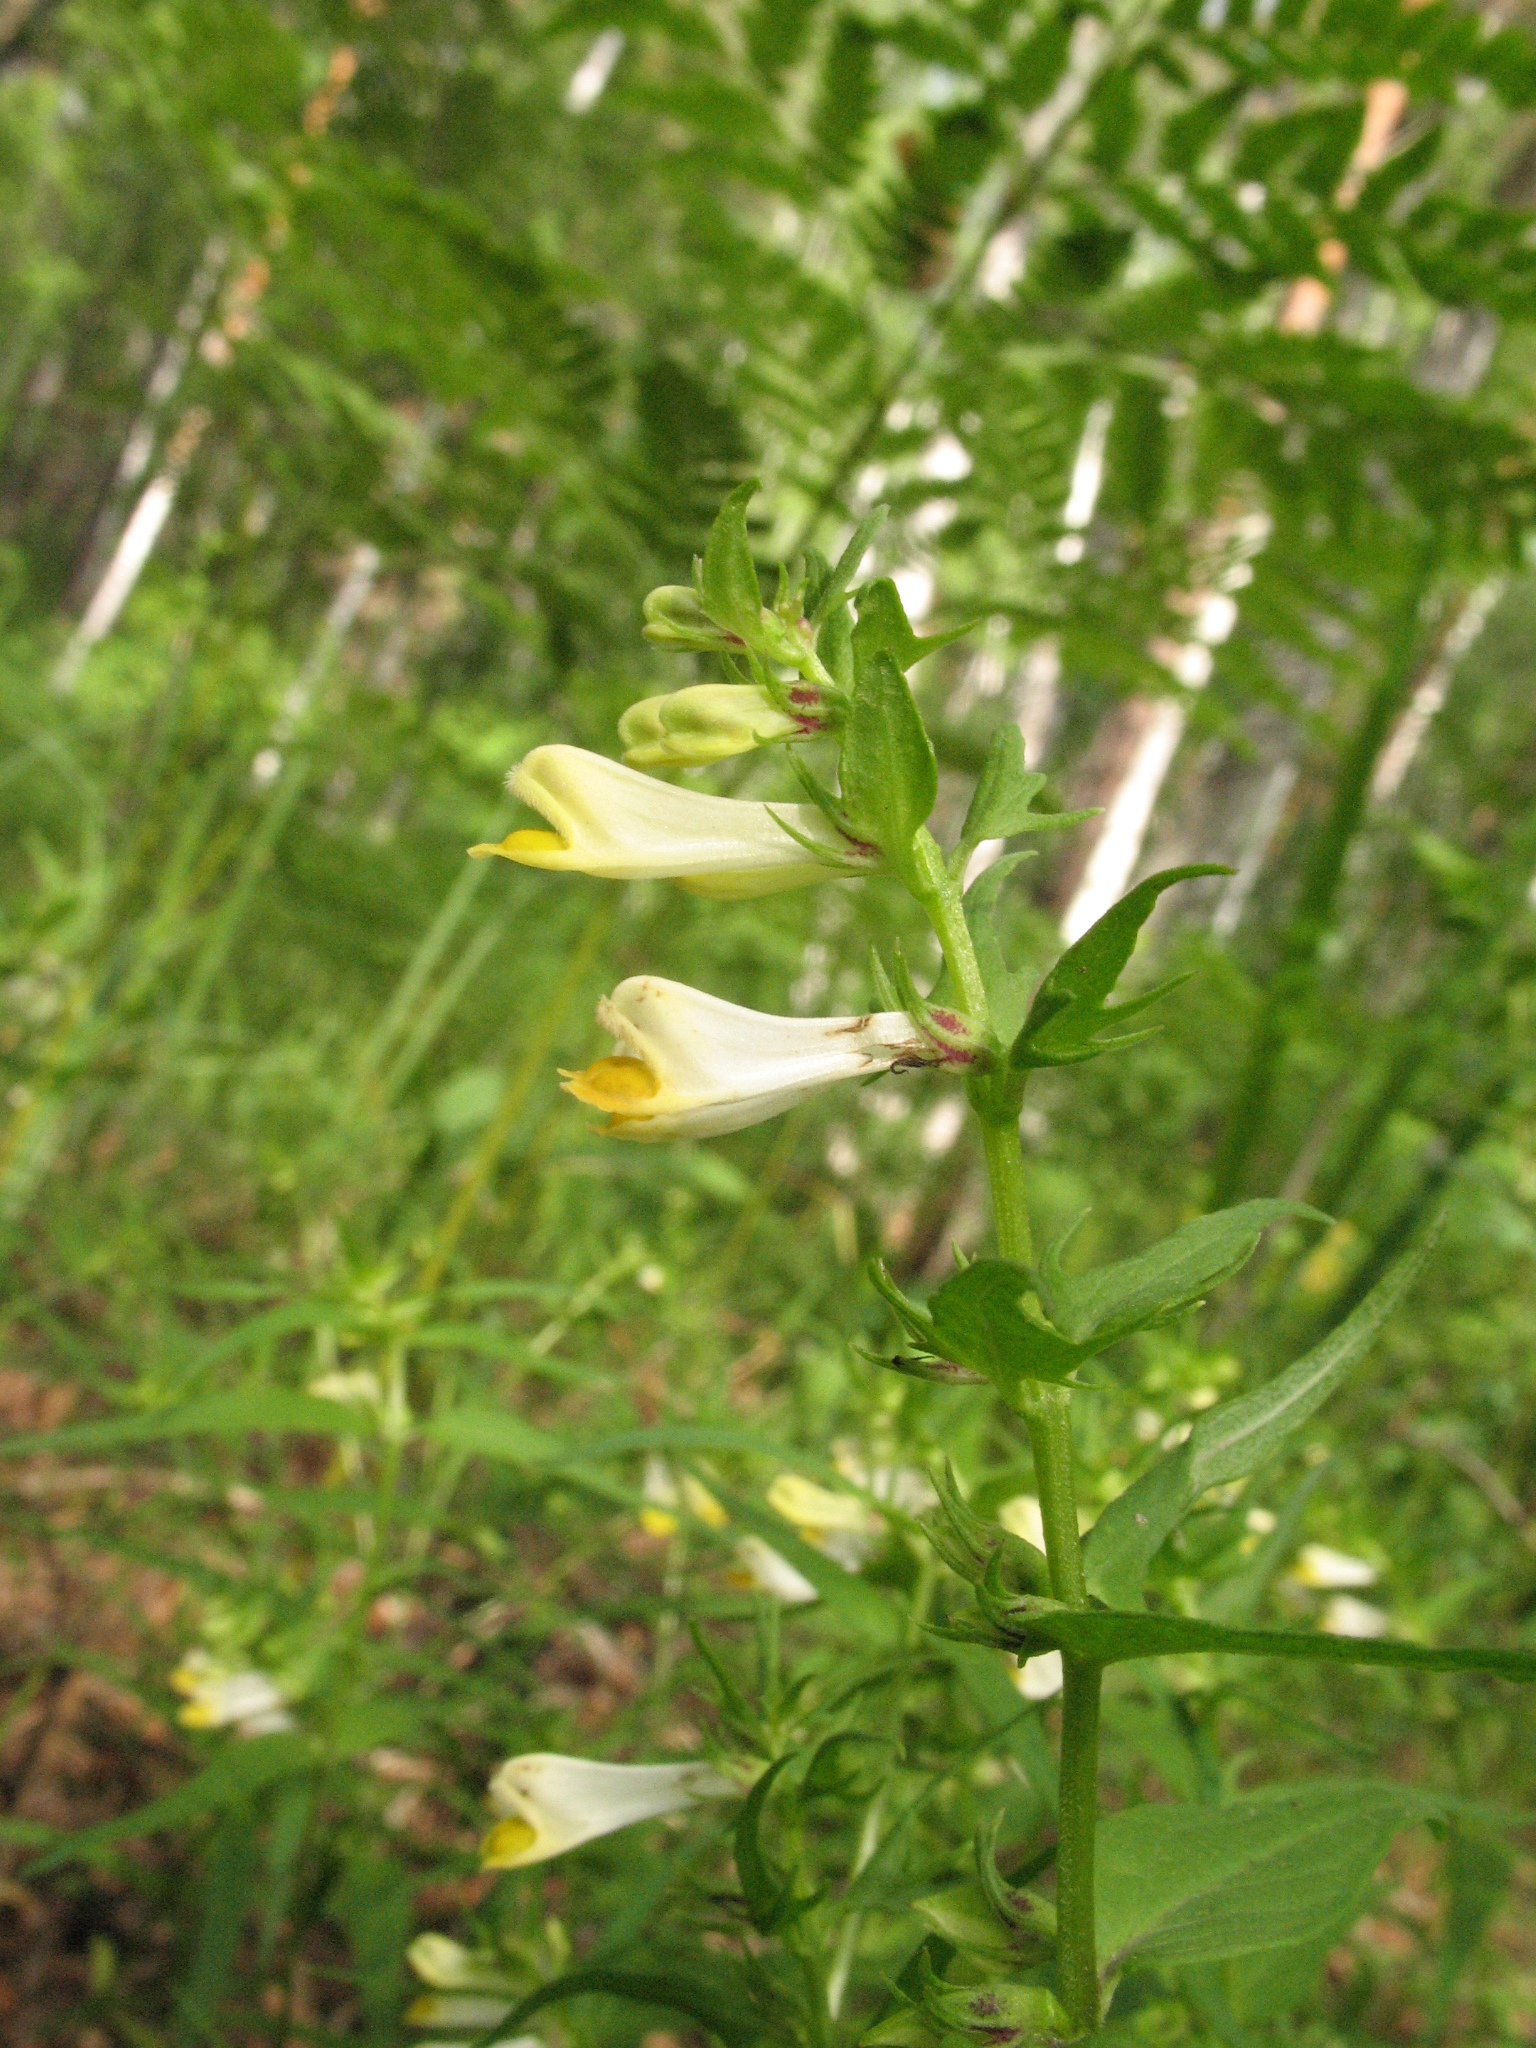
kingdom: Plantae
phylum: Tracheophyta
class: Magnoliopsida
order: Lamiales
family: Orobanchaceae
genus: Melampyrum
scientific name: Melampyrum pratense
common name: Common cow-wheat
